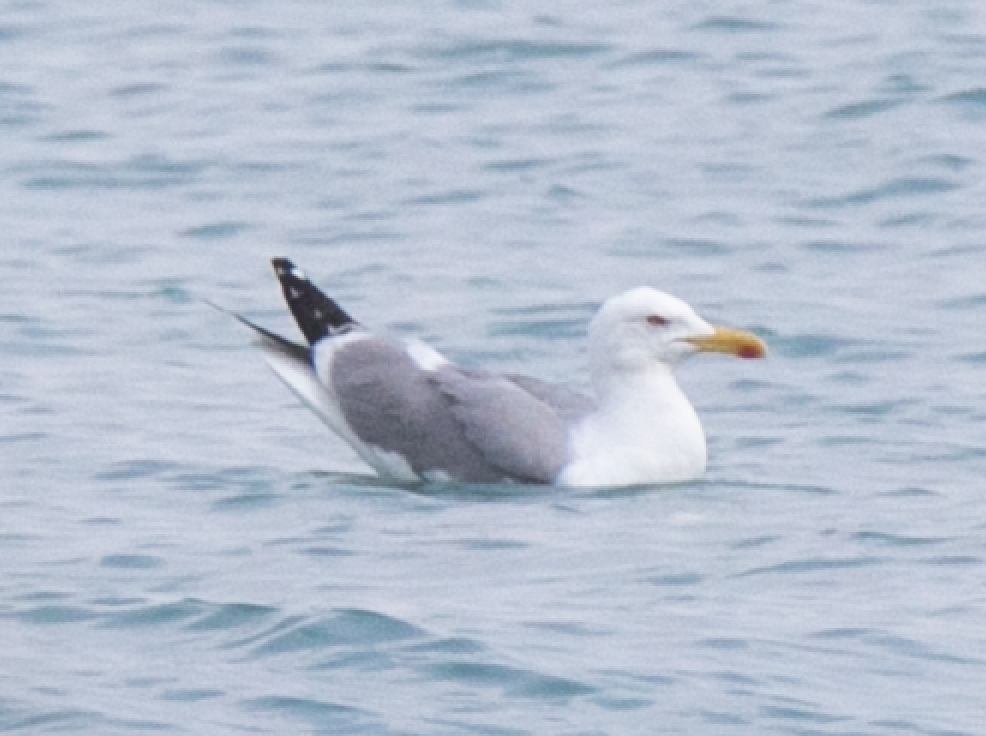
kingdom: Animalia
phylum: Chordata
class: Aves
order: Charadriiformes
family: Laridae
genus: Larus
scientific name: Larus michahellis
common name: Yellow-legged gull
